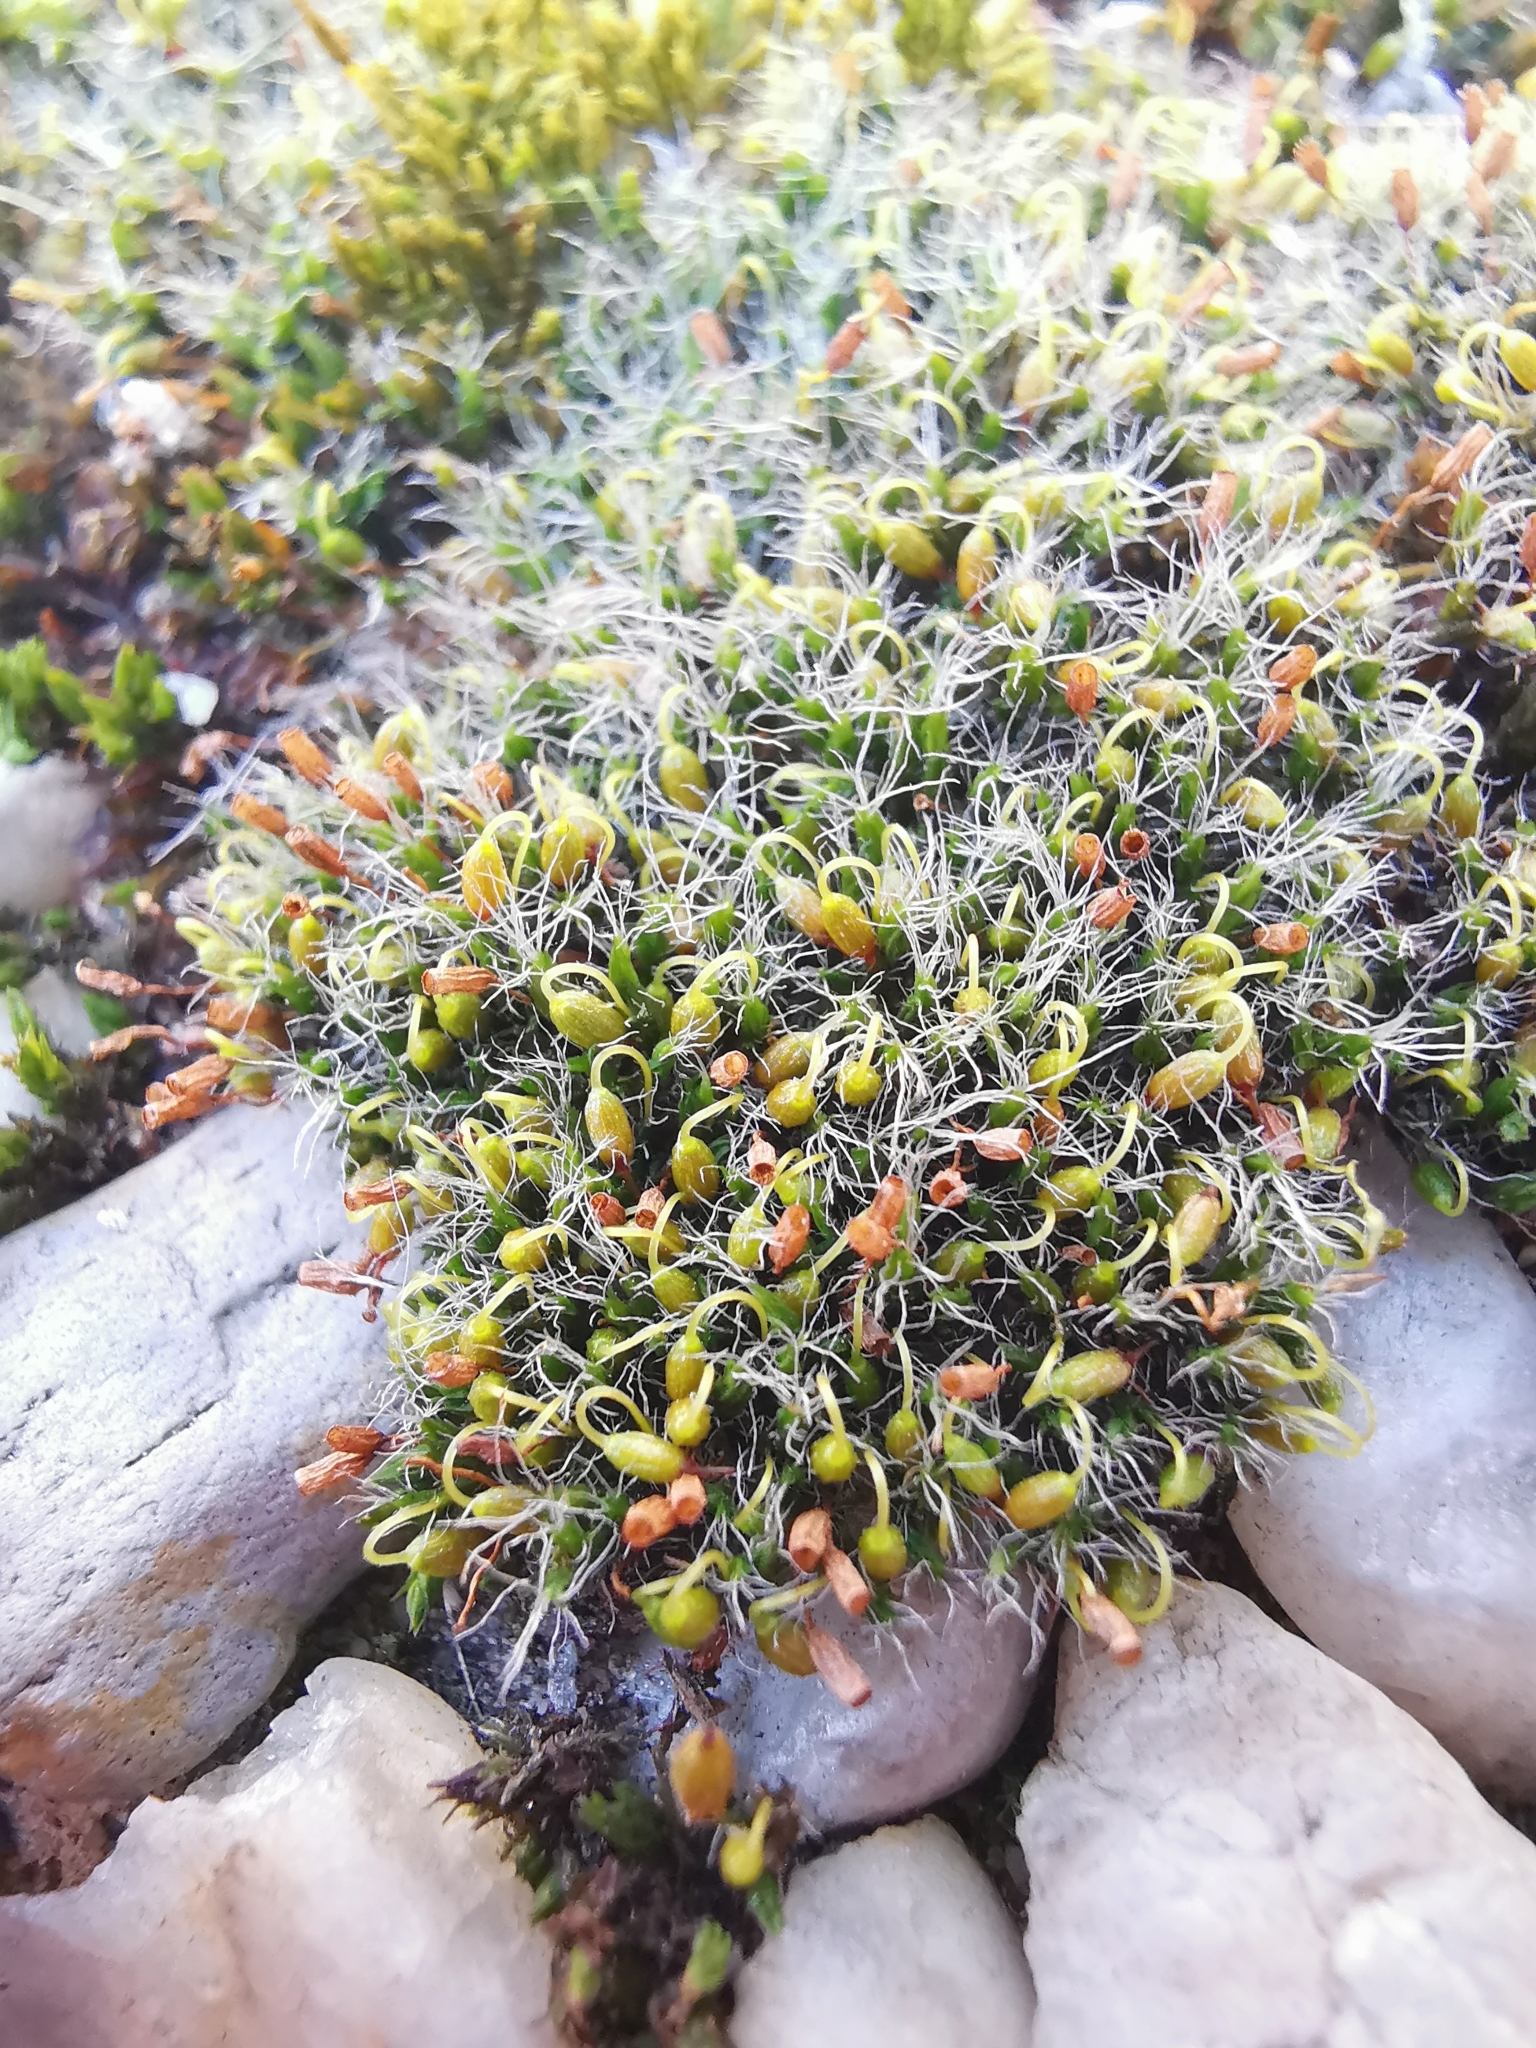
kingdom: Plantae
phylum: Bryophyta
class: Bryopsida
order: Grimmiales
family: Grimmiaceae
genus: Grimmia
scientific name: Grimmia pulvinata
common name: Grey-cushioned grimmia
